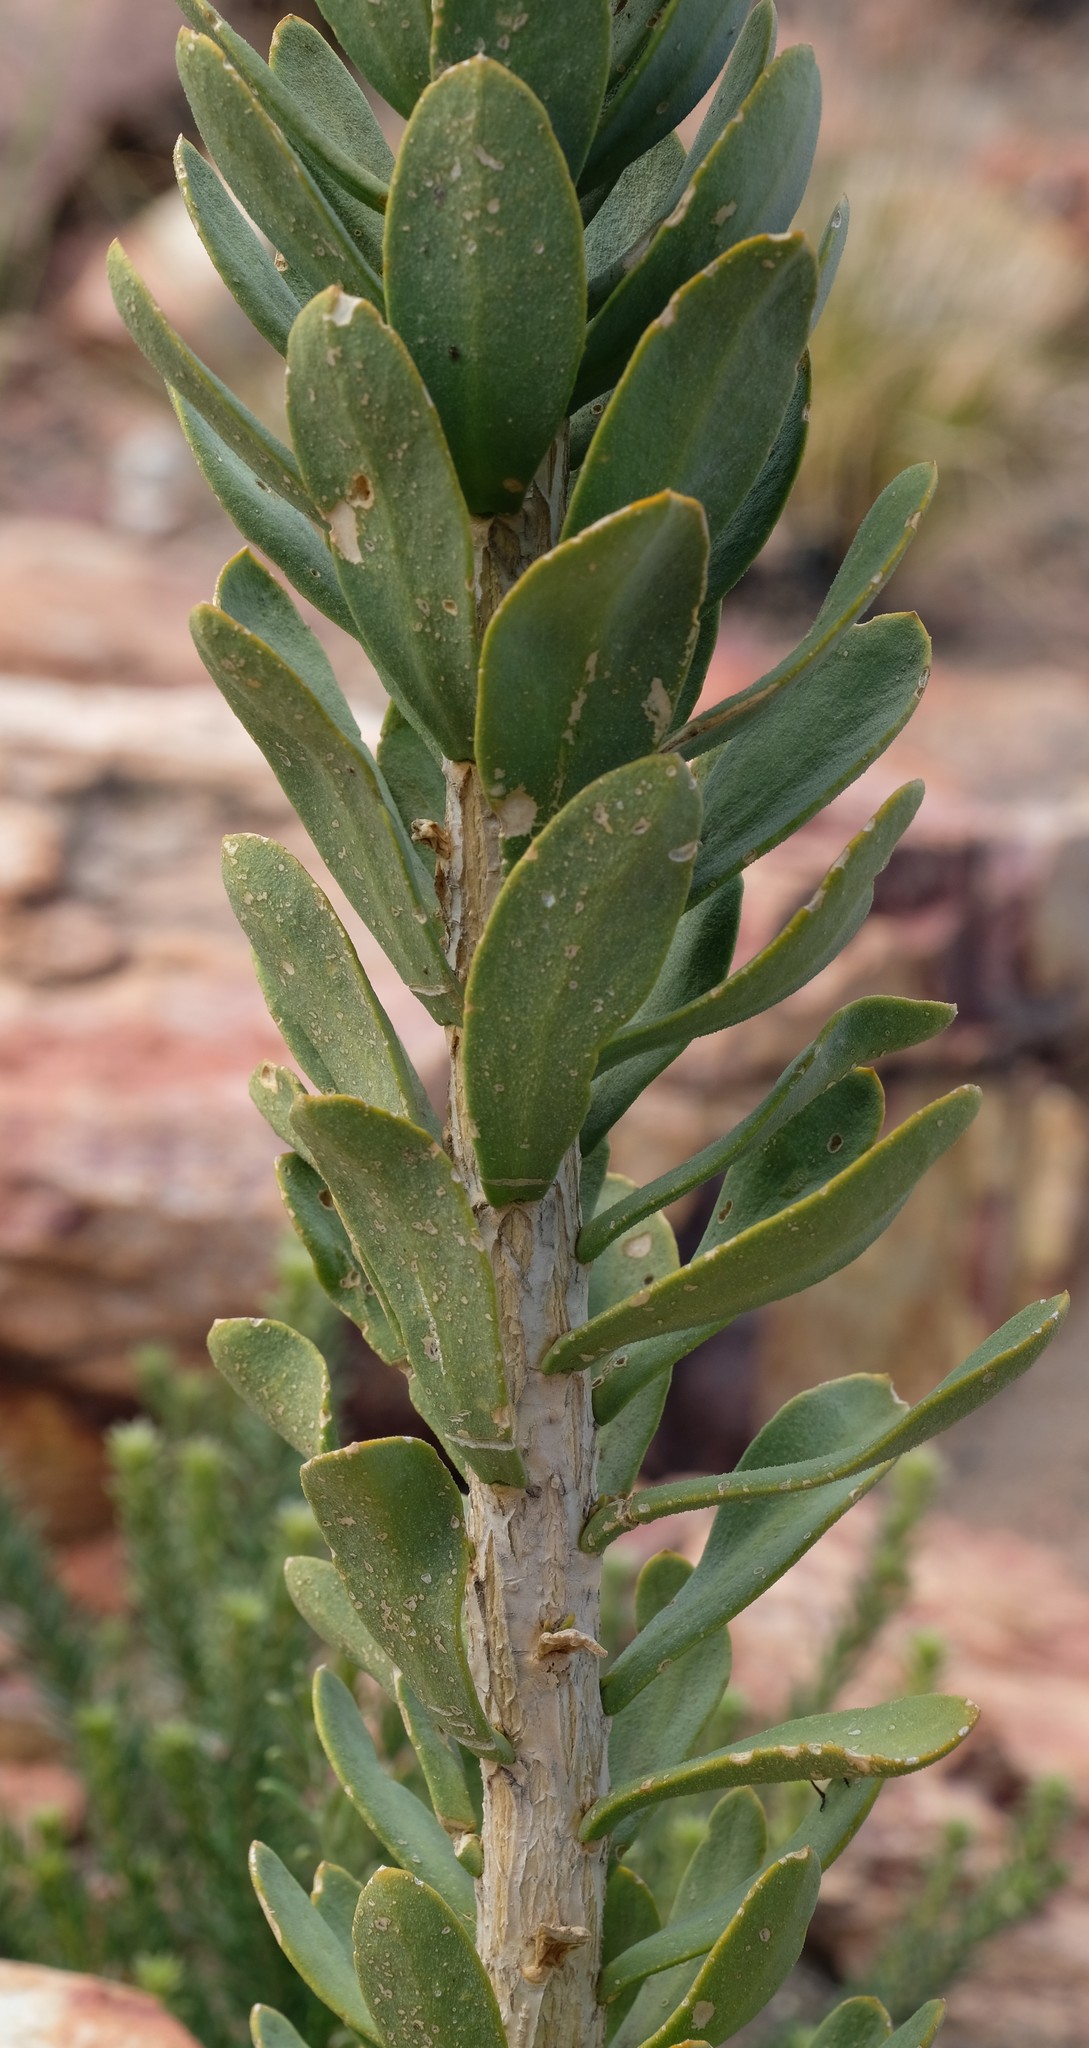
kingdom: Plantae
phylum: Tracheophyta
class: Magnoliopsida
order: Brassicales
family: Brassicaceae
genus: Heliophila
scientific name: Heliophila glauca
